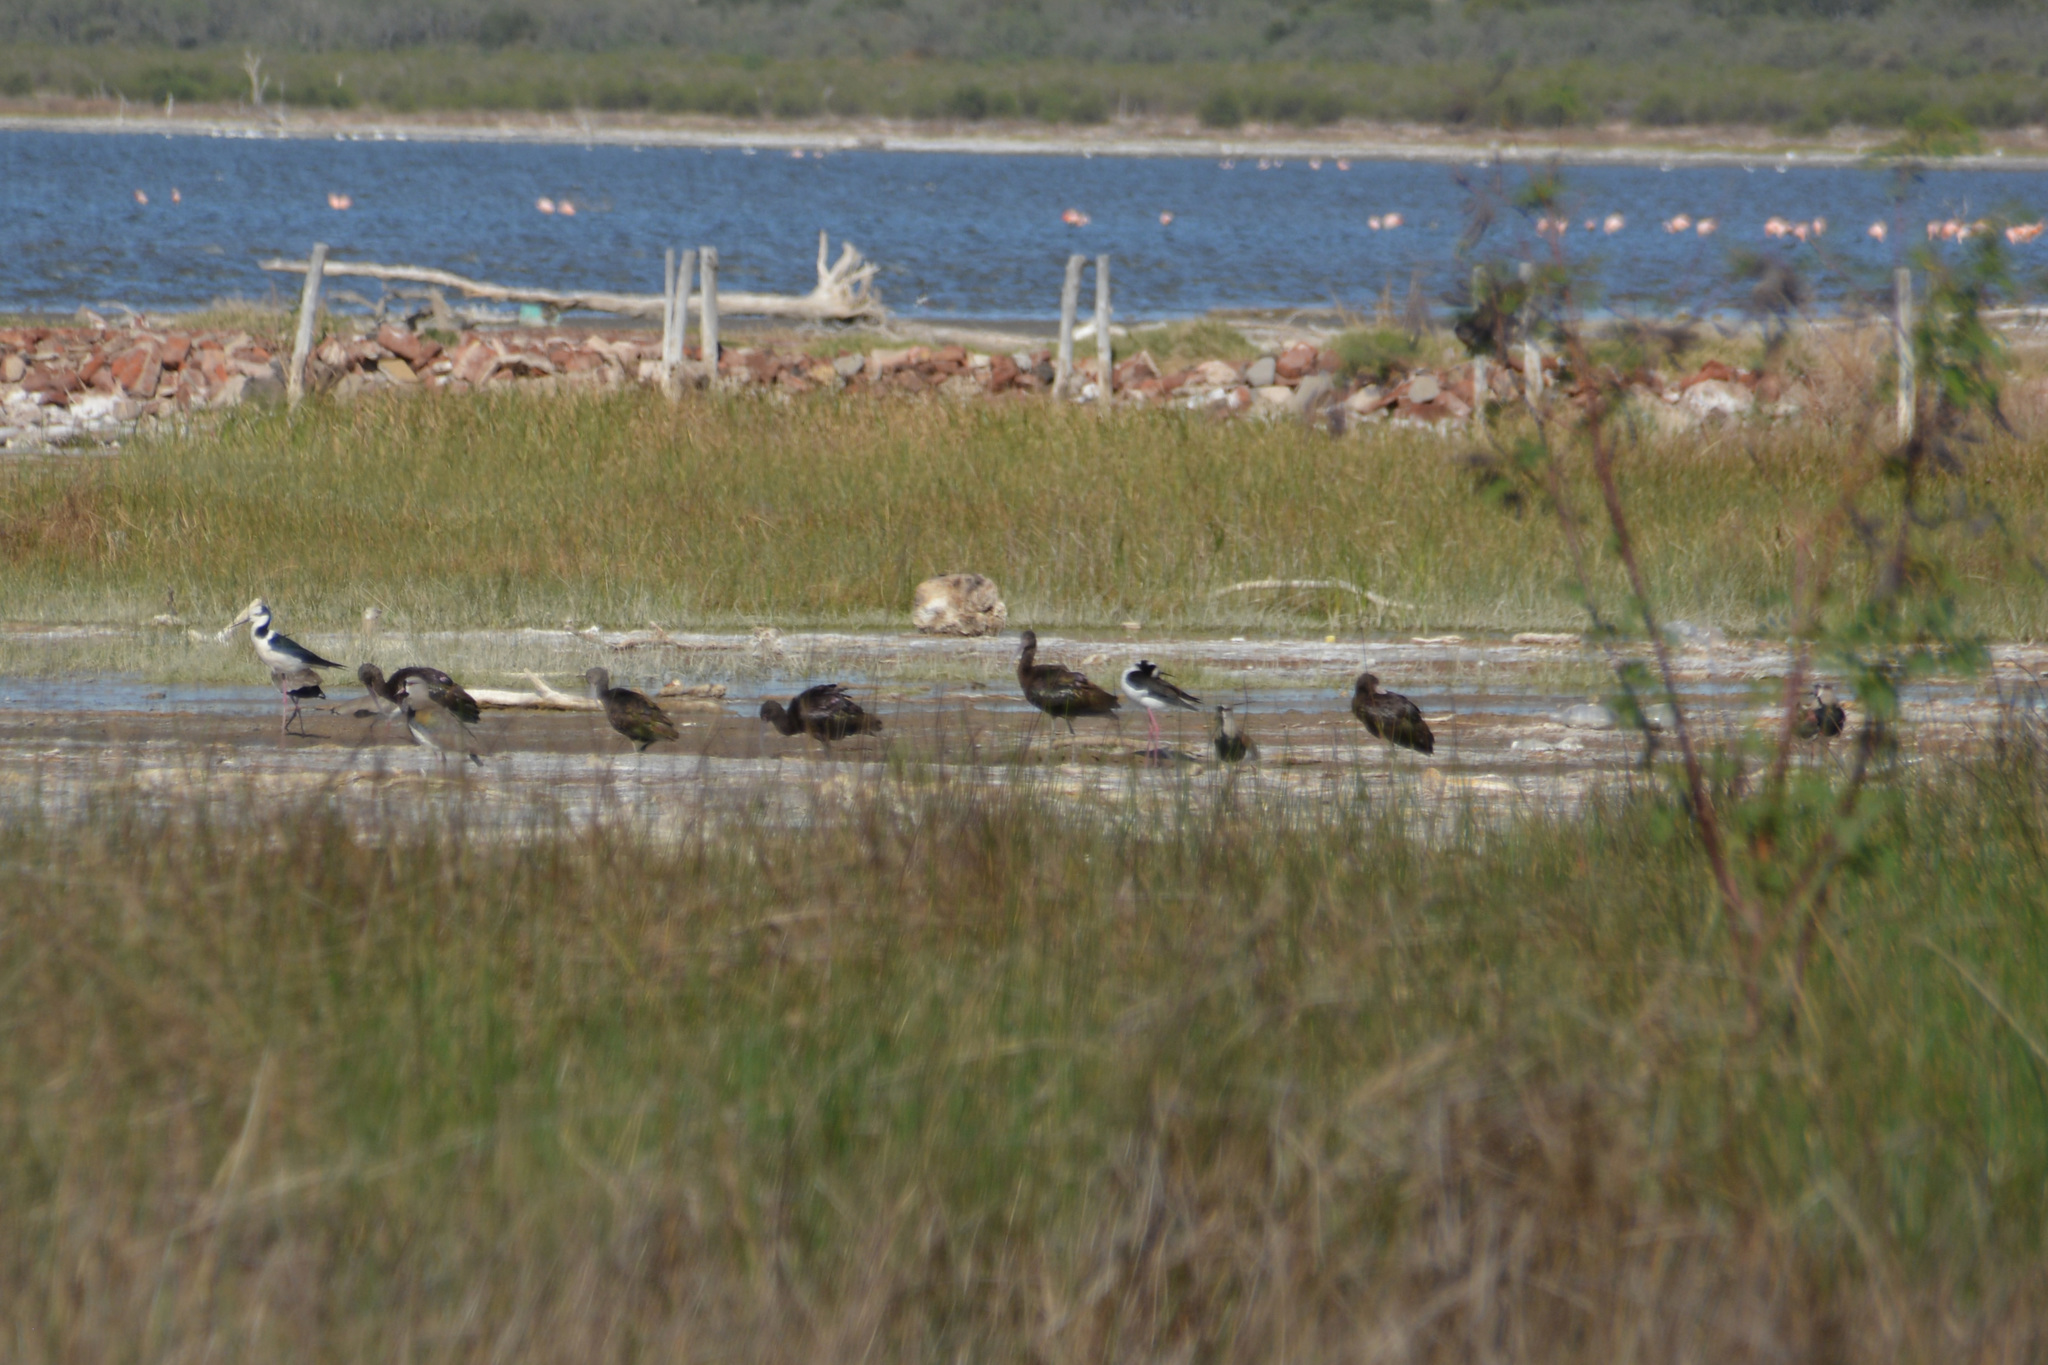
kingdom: Animalia
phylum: Chordata
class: Aves
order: Charadriiformes
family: Recurvirostridae
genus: Himantopus
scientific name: Himantopus mexicanus
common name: Black-necked stilt
